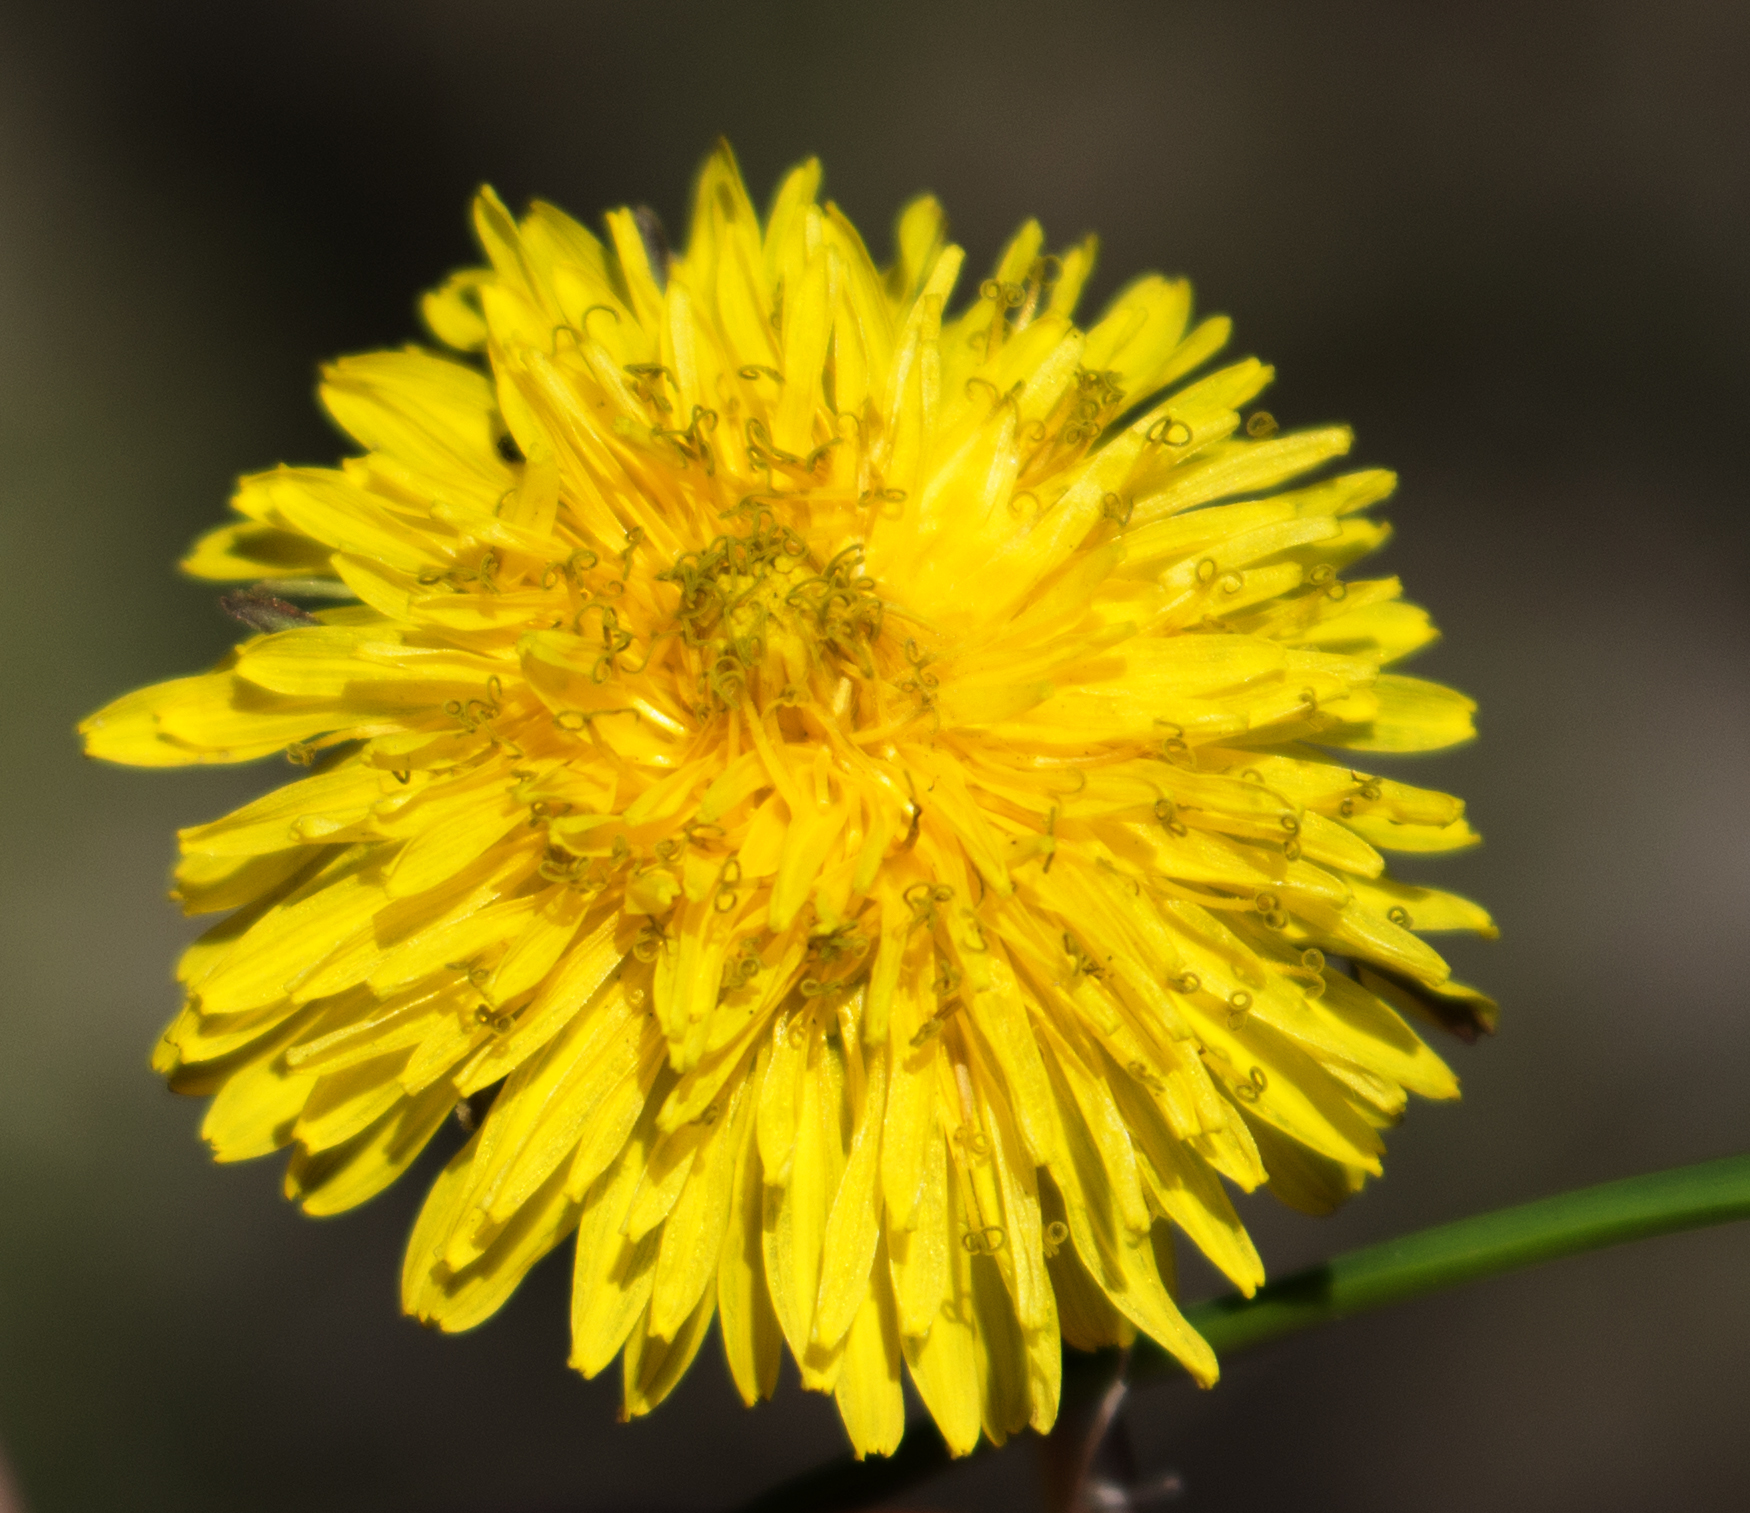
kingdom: Plantae
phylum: Tracheophyta
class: Magnoliopsida
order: Asterales
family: Asteraceae
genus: Taraxacum
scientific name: Taraxacum officinale
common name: Common dandelion
